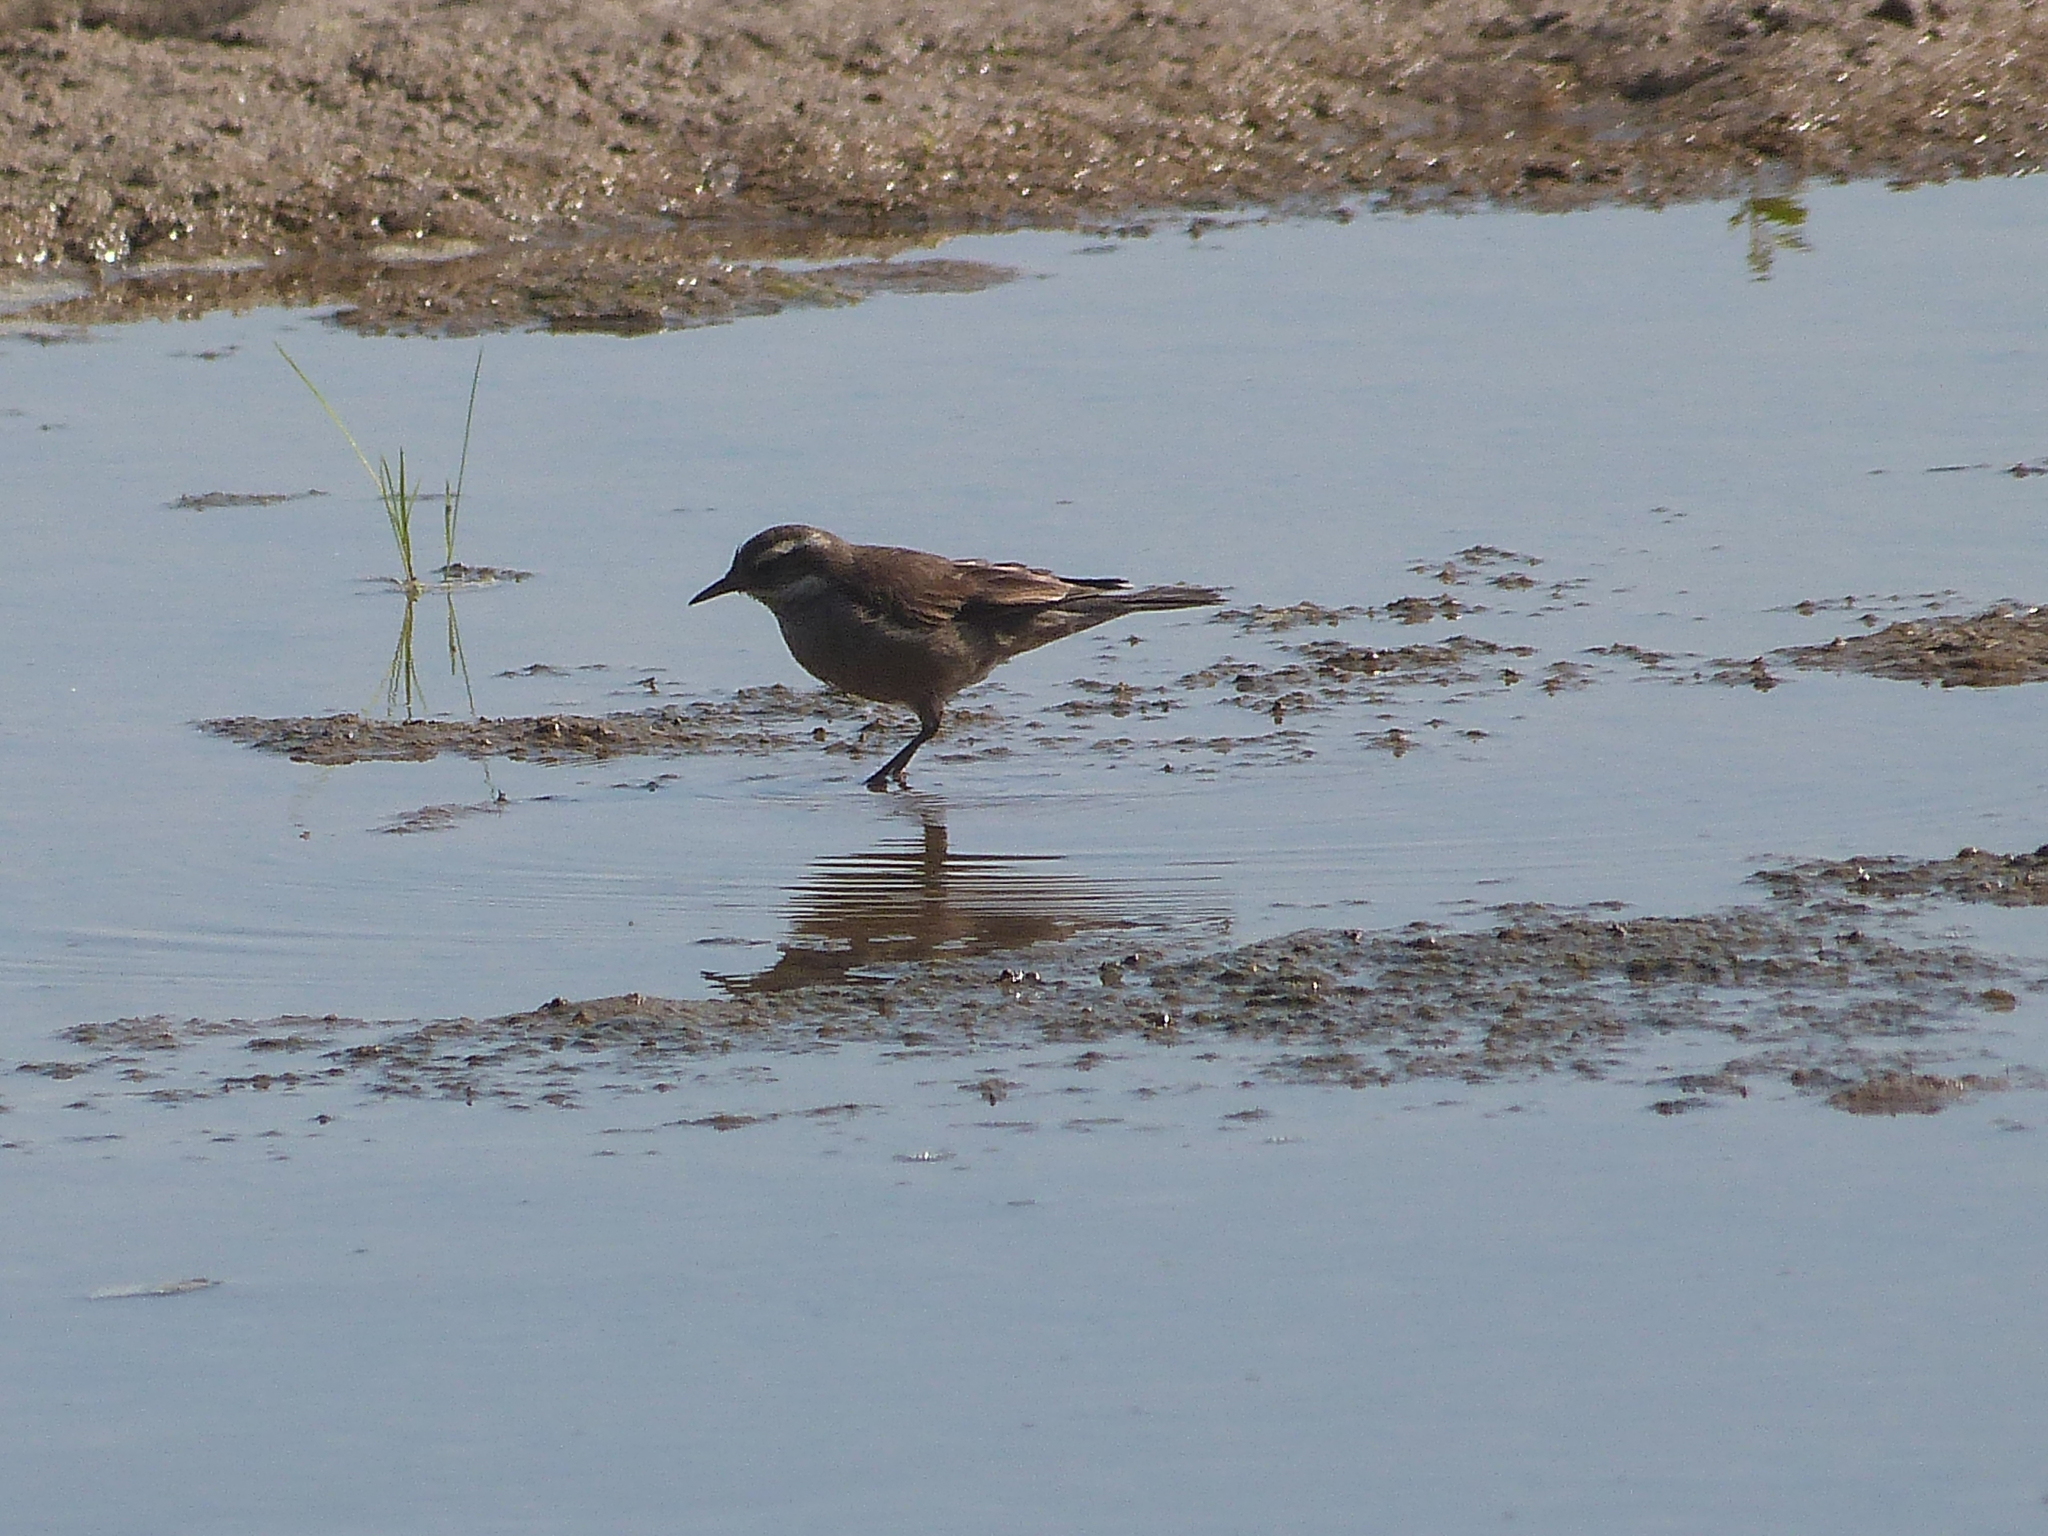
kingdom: Animalia
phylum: Chordata
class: Aves
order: Passeriformes
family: Furnariidae
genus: Cinclodes
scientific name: Cinclodes fuscus
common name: Buff-winged cinclodes
